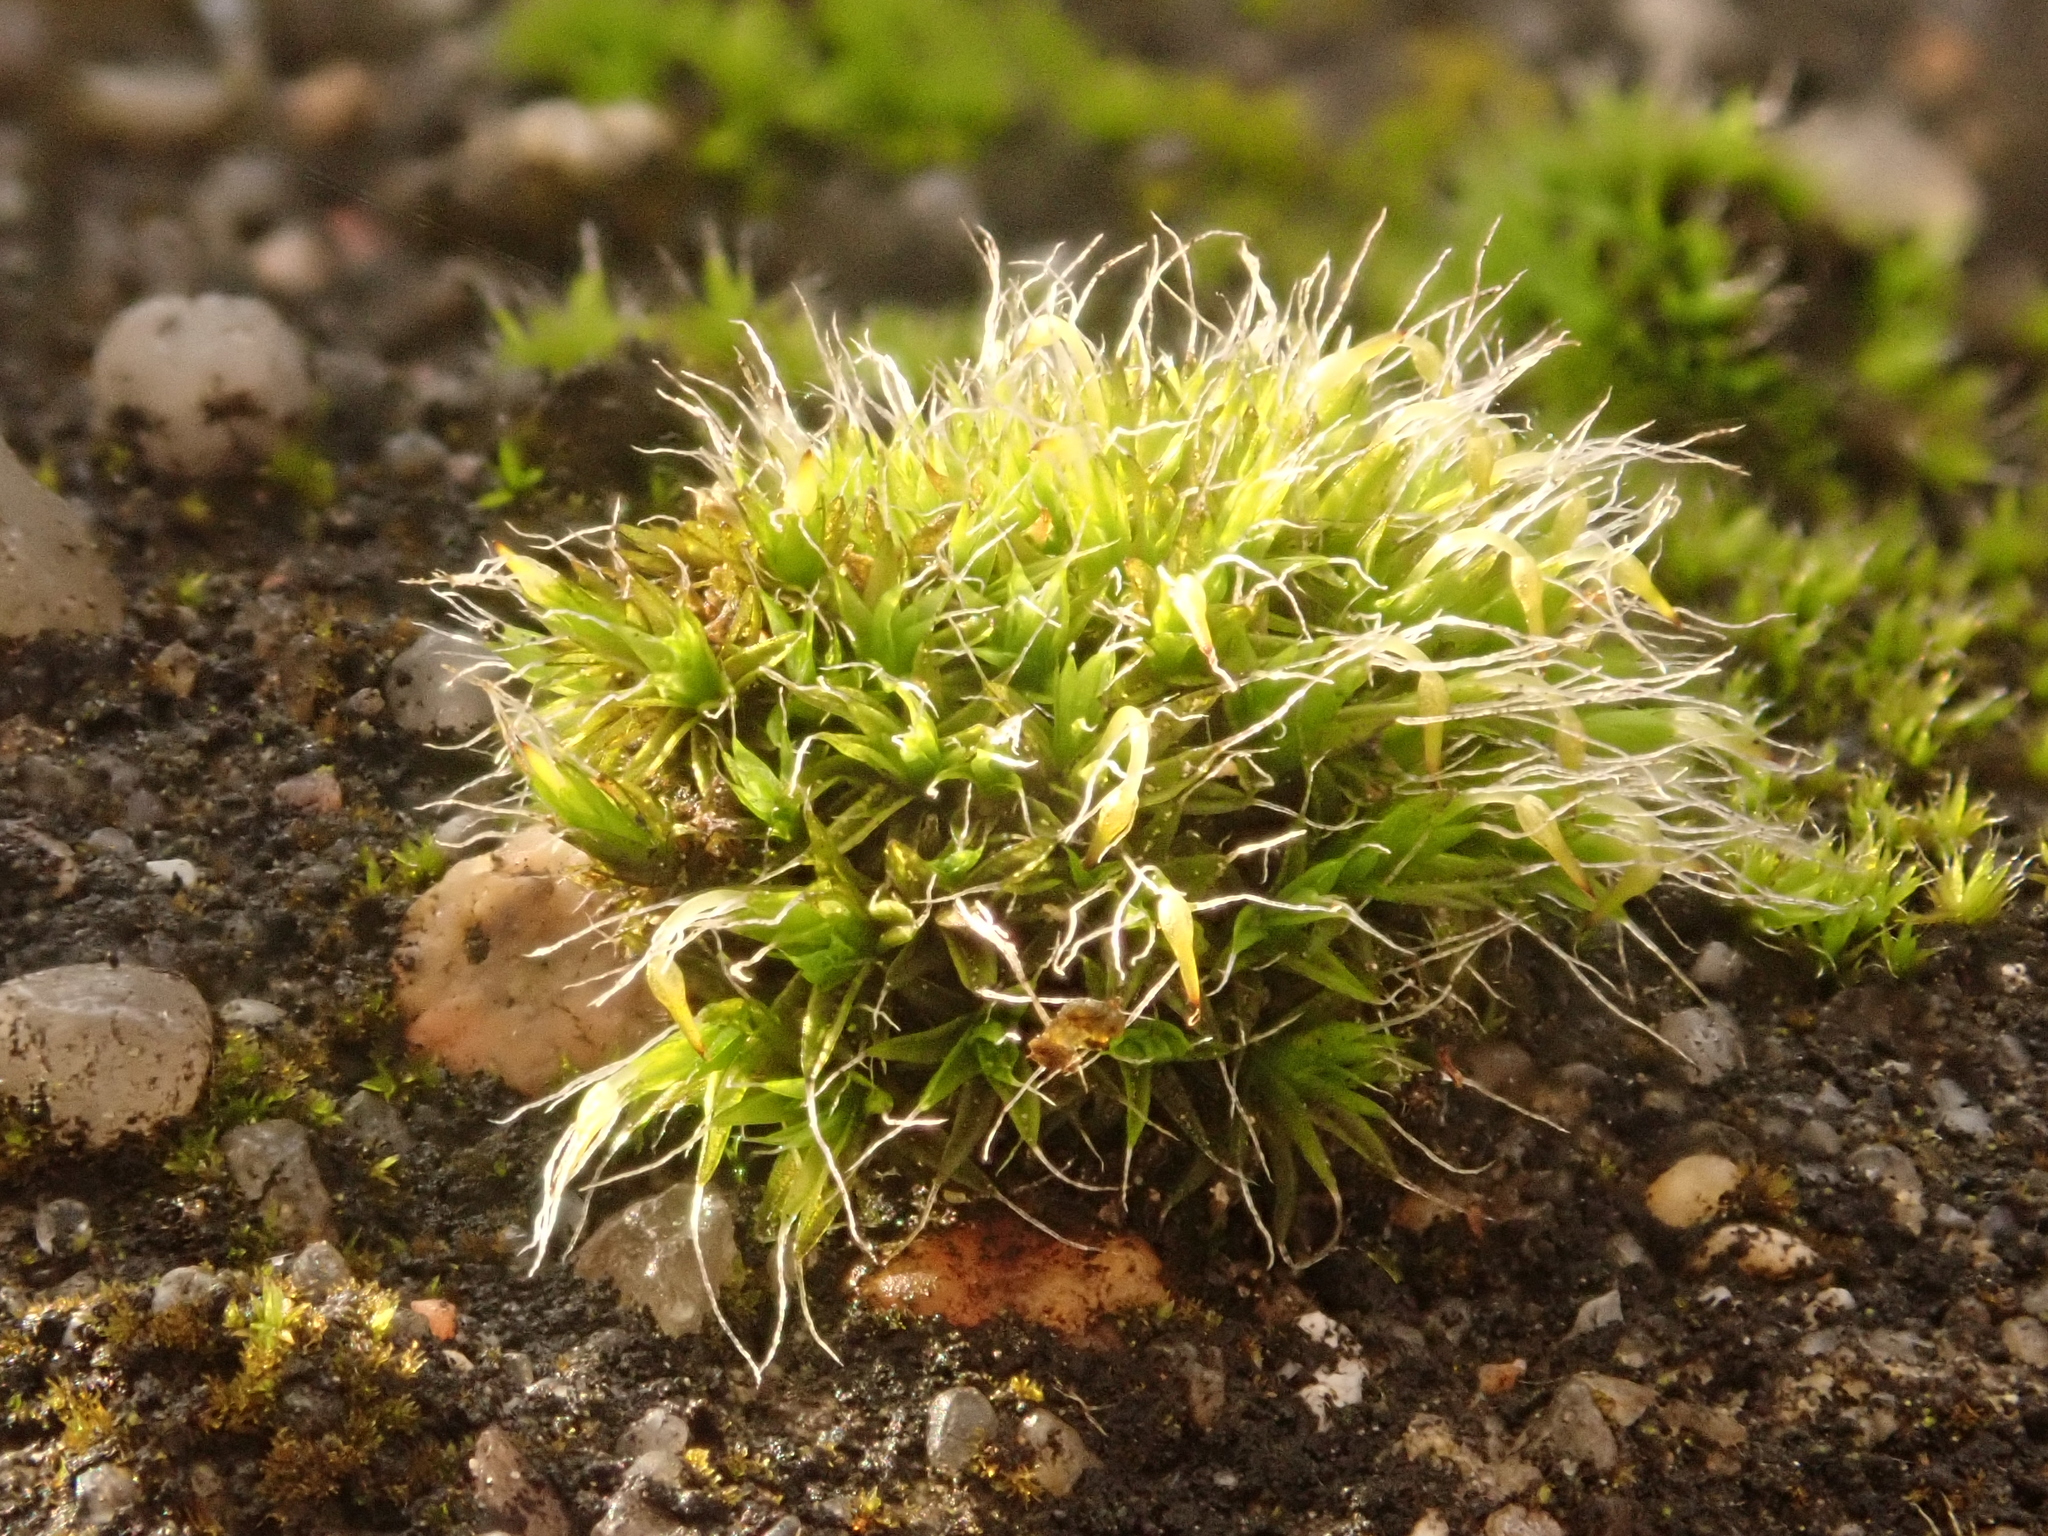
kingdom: Plantae
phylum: Bryophyta
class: Bryopsida
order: Grimmiales
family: Grimmiaceae
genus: Grimmia
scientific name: Grimmia pulvinata
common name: Grey-cushioned grimmia
